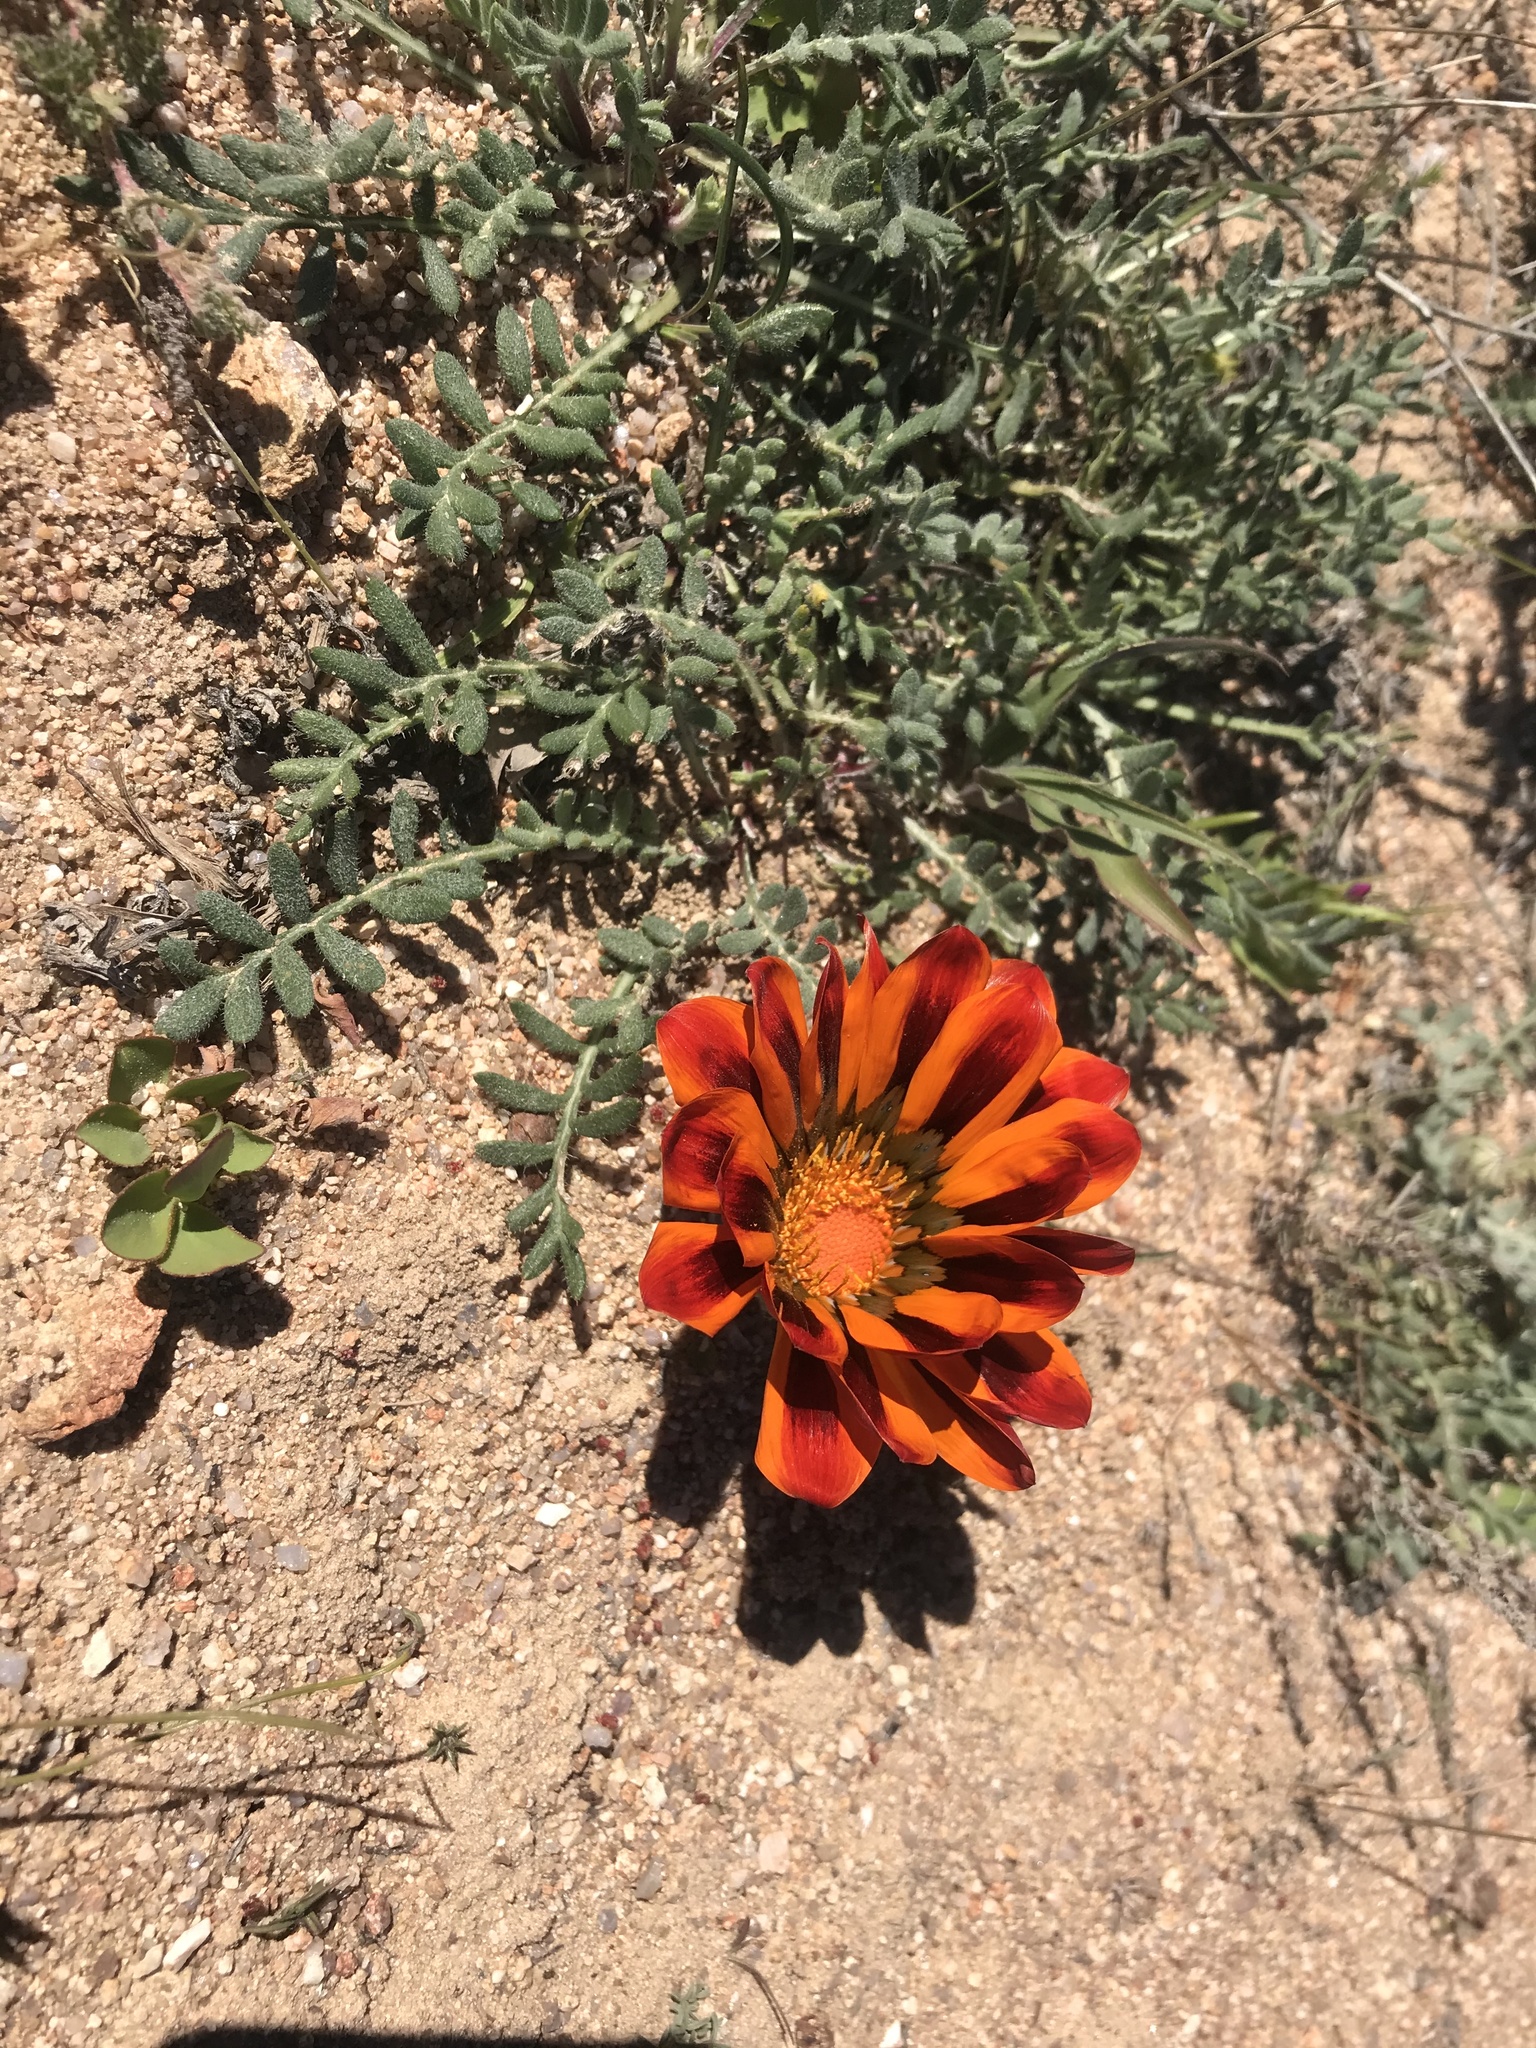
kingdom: Plantae
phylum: Tracheophyta
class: Magnoliopsida
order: Asterales
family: Asteraceae
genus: Gazania
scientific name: Gazania leiopoda
